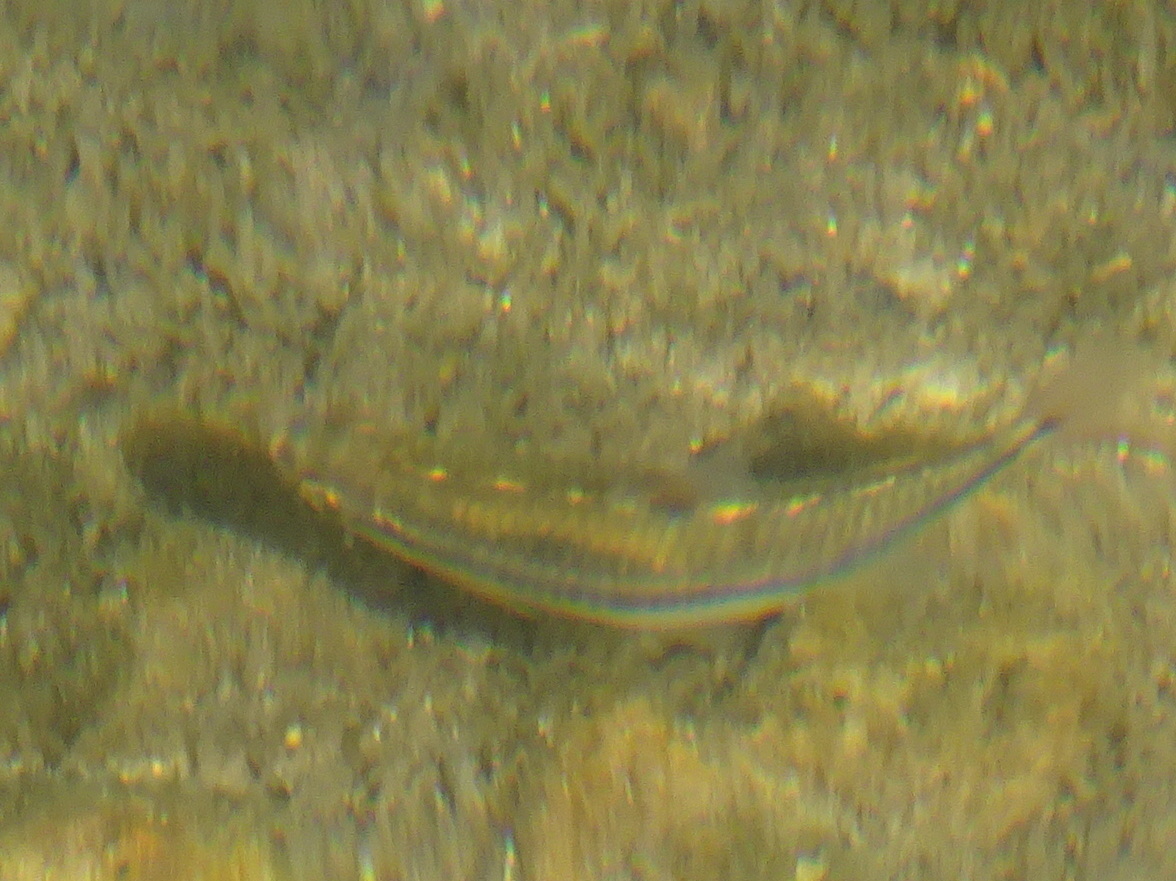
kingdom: Animalia
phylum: Chordata
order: Cypriniformes
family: Cyprinidae
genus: Notropis
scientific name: Notropis
